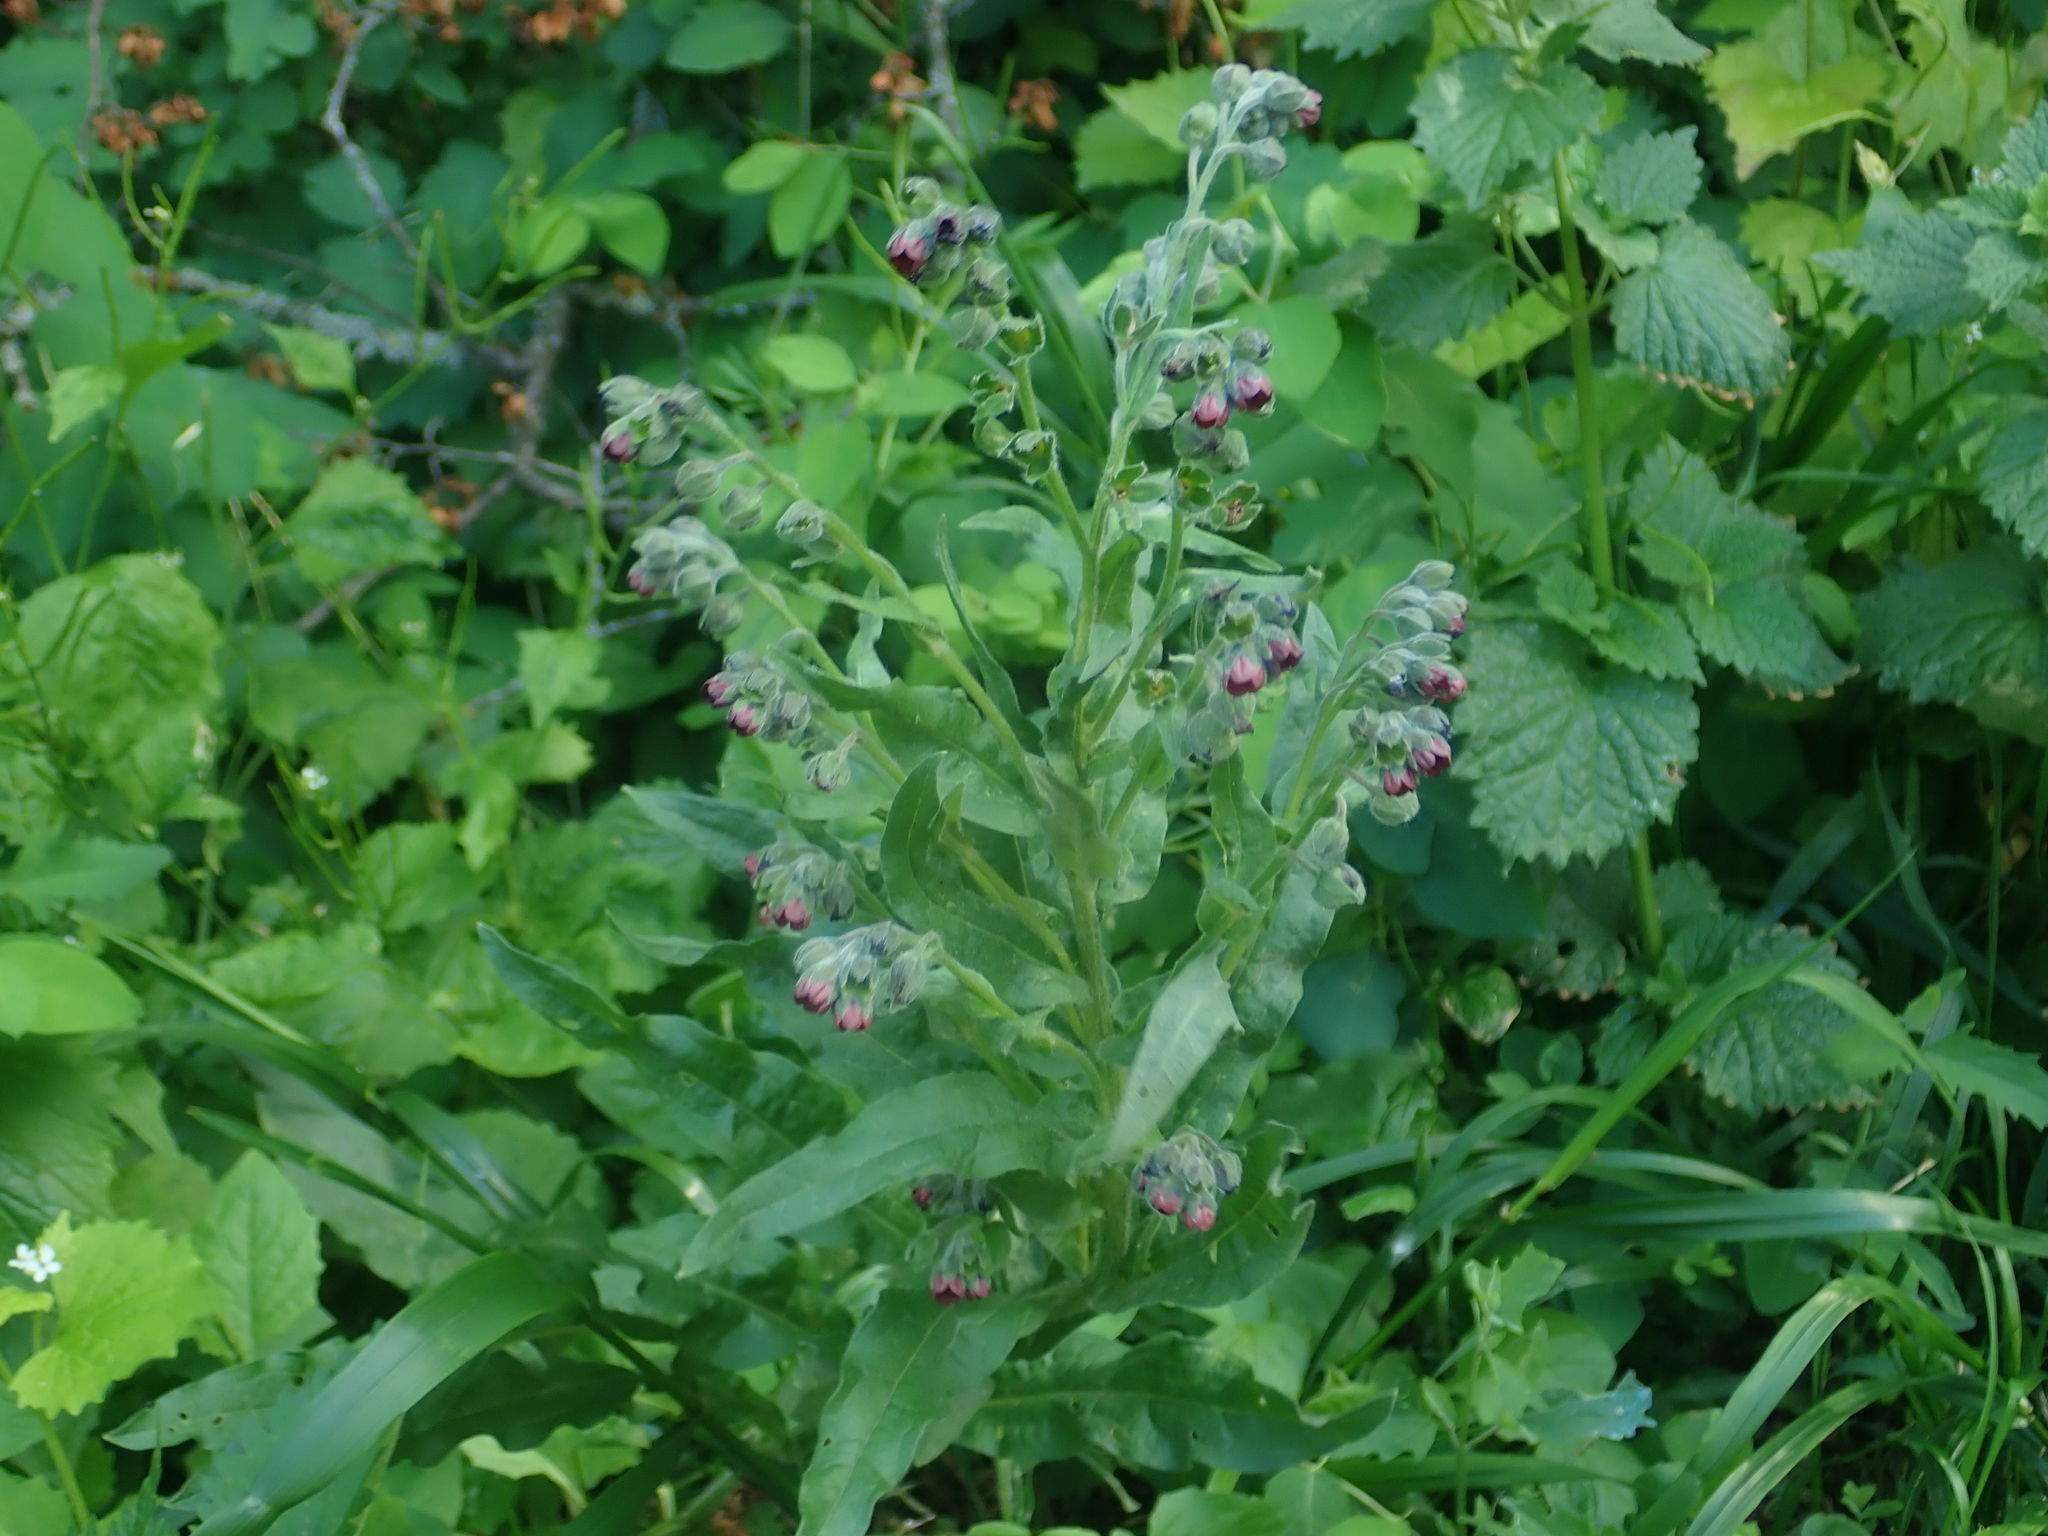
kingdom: Plantae
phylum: Tracheophyta
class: Magnoliopsida
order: Boraginales
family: Boraginaceae
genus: Cynoglossum
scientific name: Cynoglossum officinale
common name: Hound's-tongue
